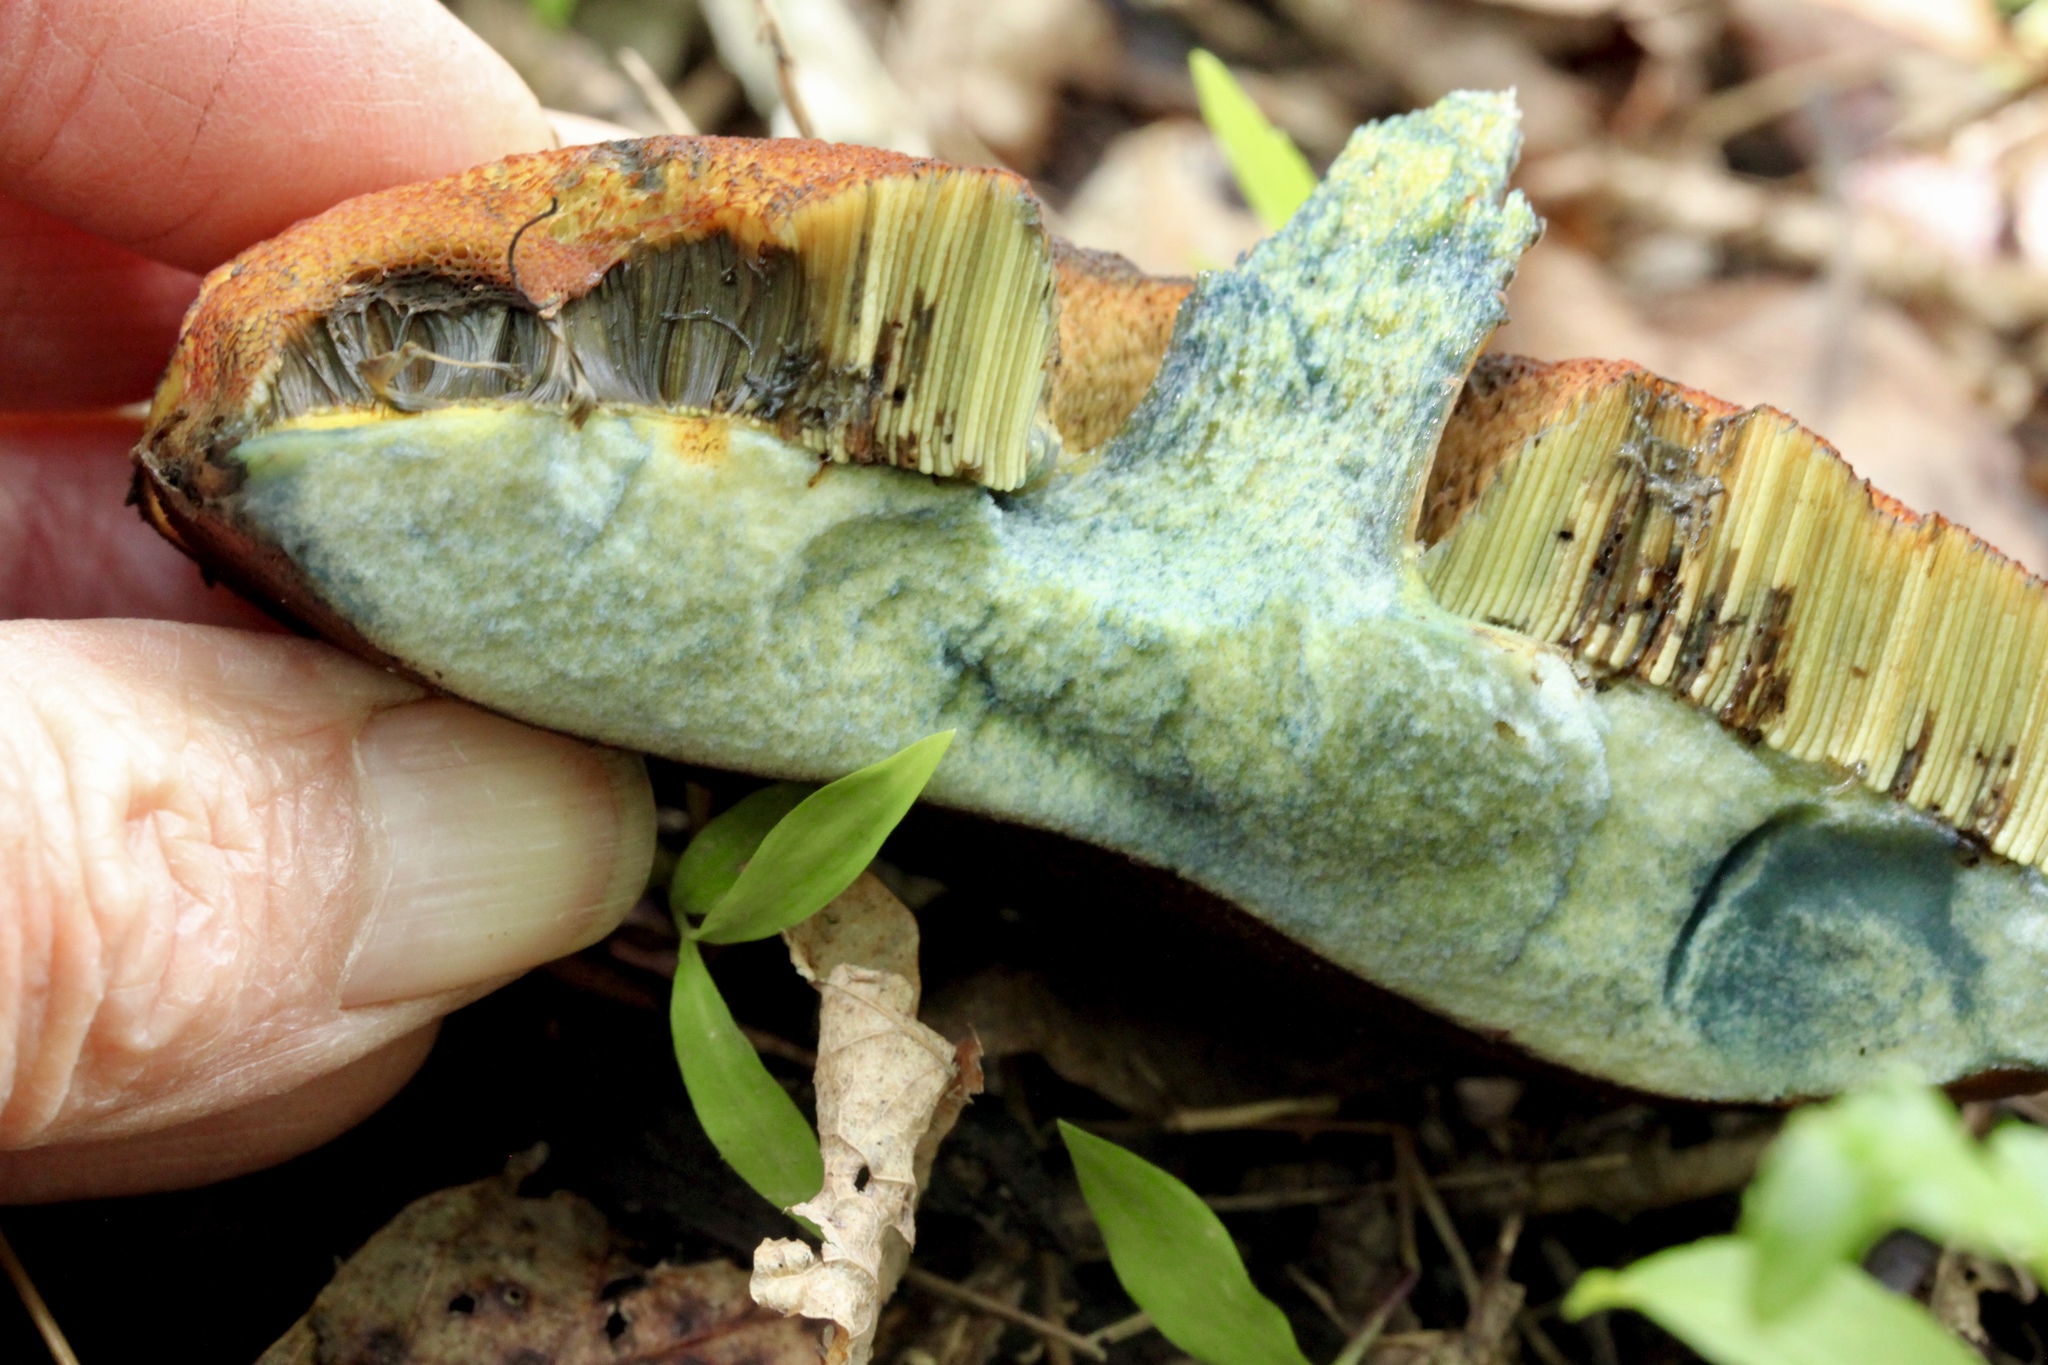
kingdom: Fungi
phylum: Basidiomycota
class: Agaricomycetes
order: Boletales
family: Boletaceae
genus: Boletus
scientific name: Boletus subvelutipes
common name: Red-mouth bolete
